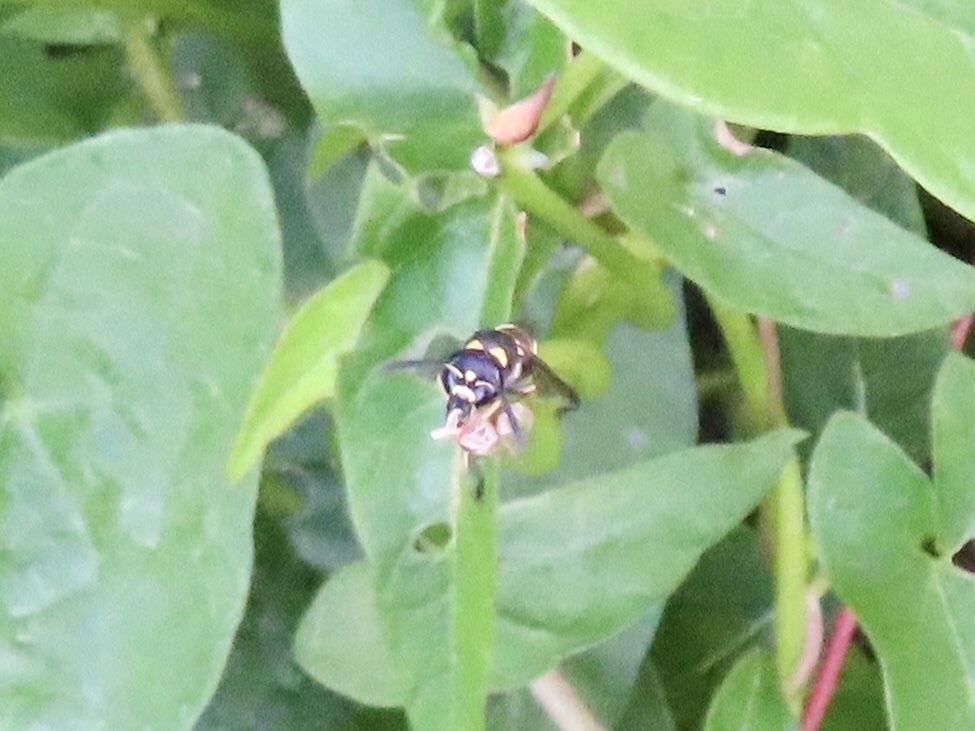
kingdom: Animalia
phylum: Arthropoda
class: Insecta
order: Hymenoptera
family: Eumenidae
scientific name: Eumenidae
